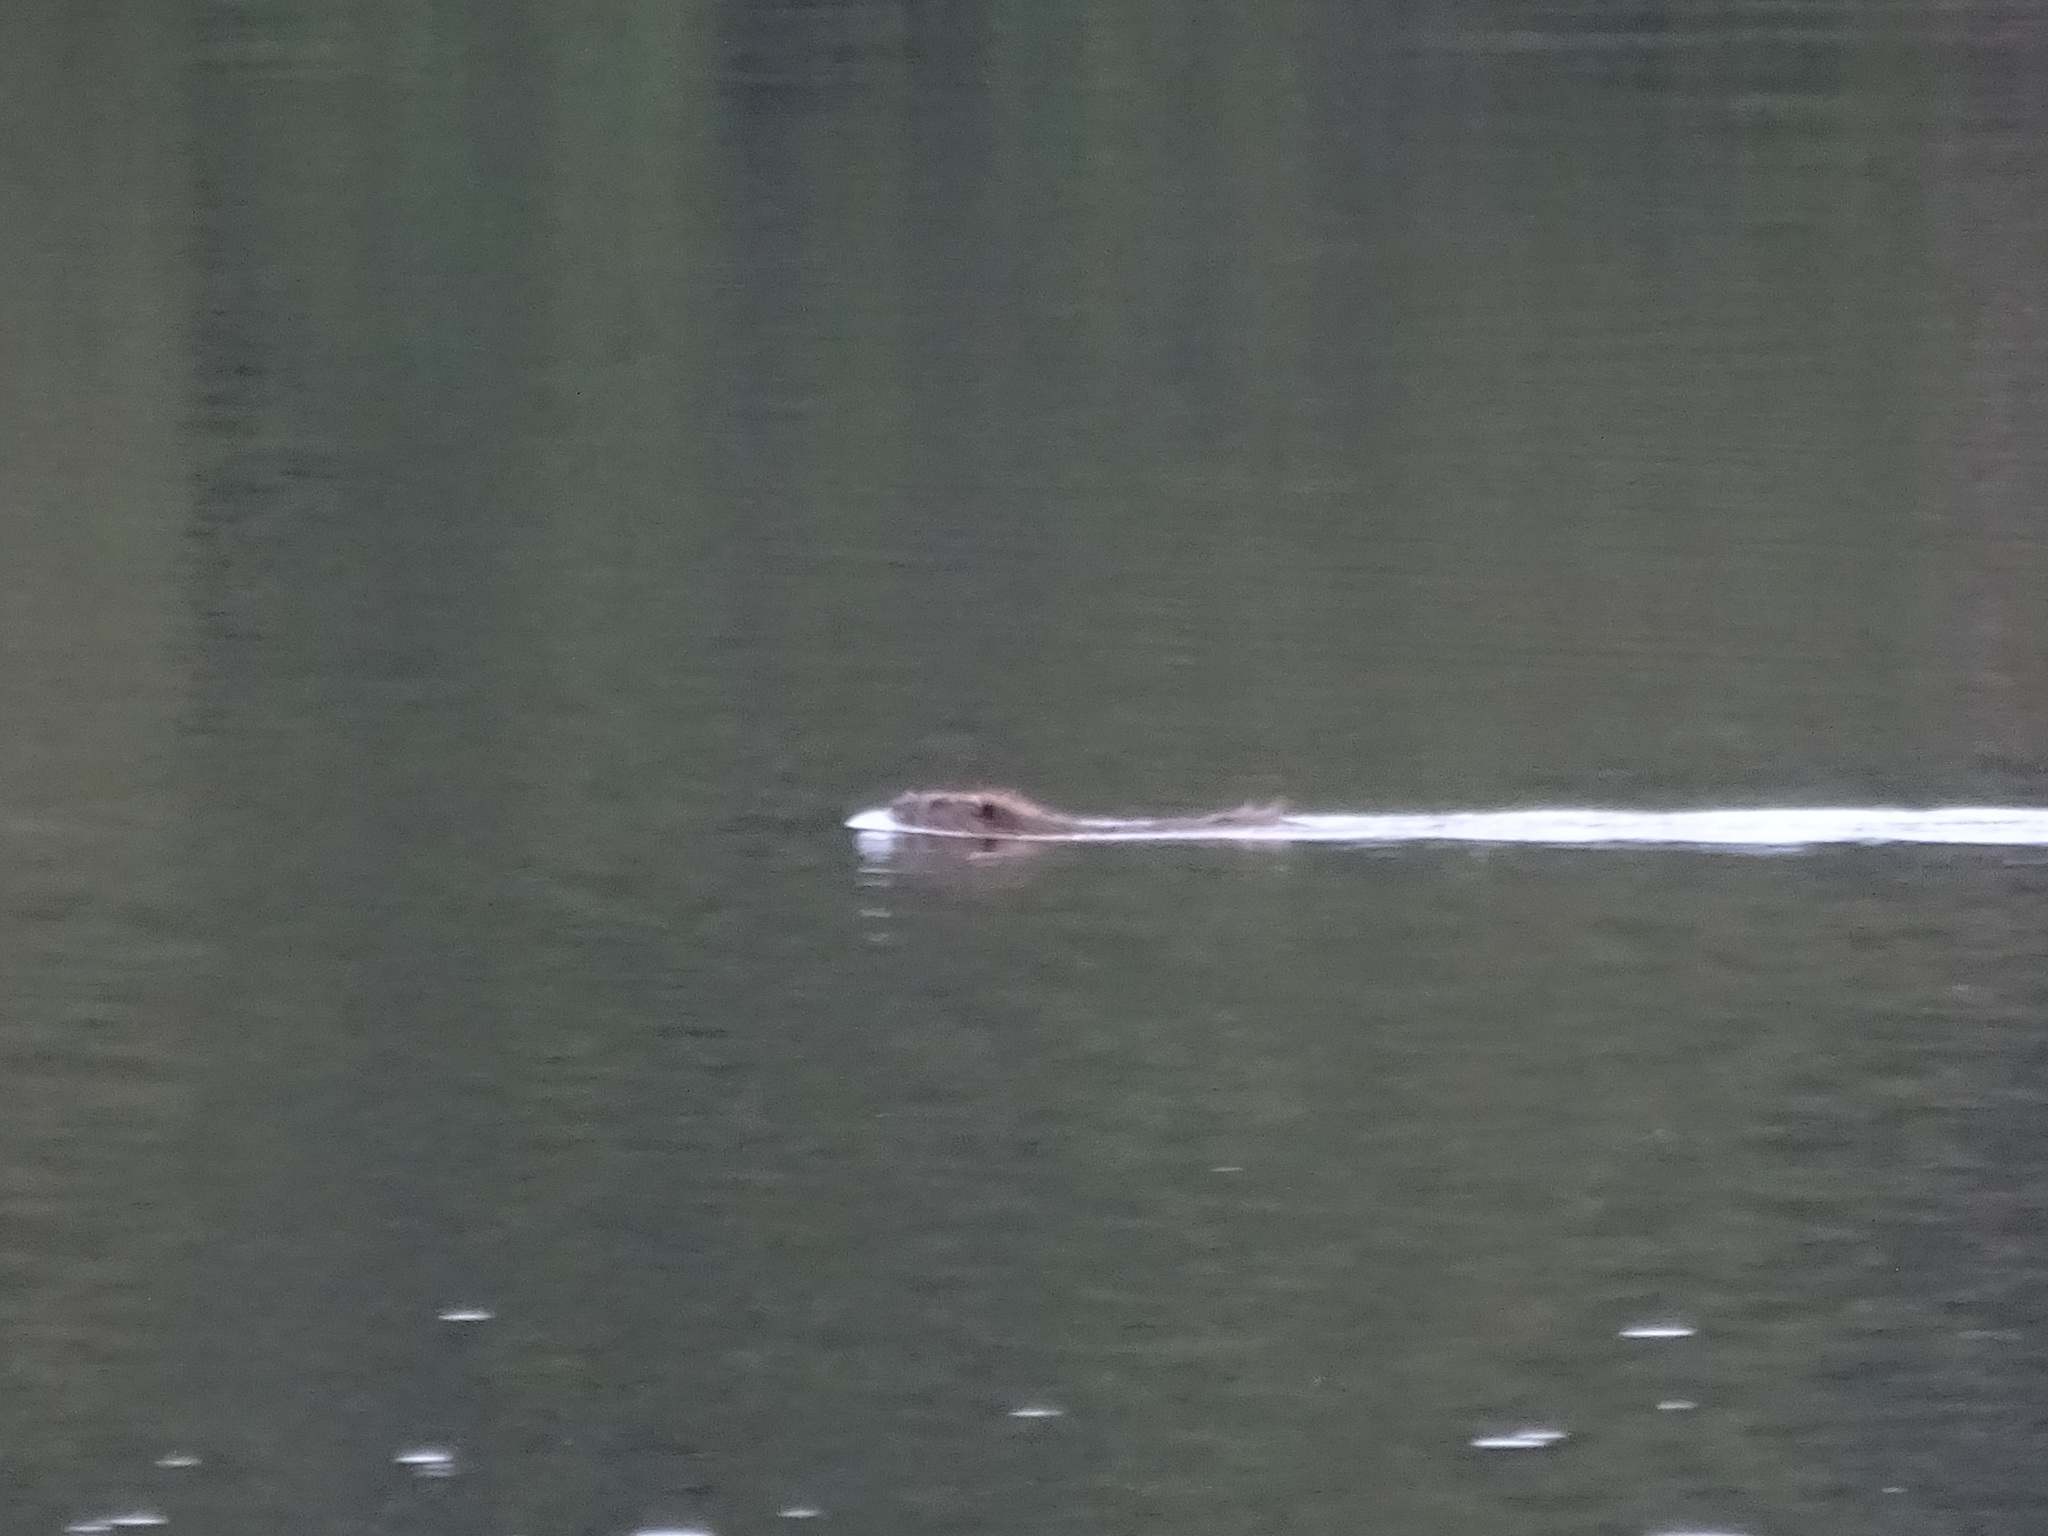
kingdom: Animalia
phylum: Chordata
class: Mammalia
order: Rodentia
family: Castoridae
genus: Castor
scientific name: Castor fiber
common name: Eurasian beaver
